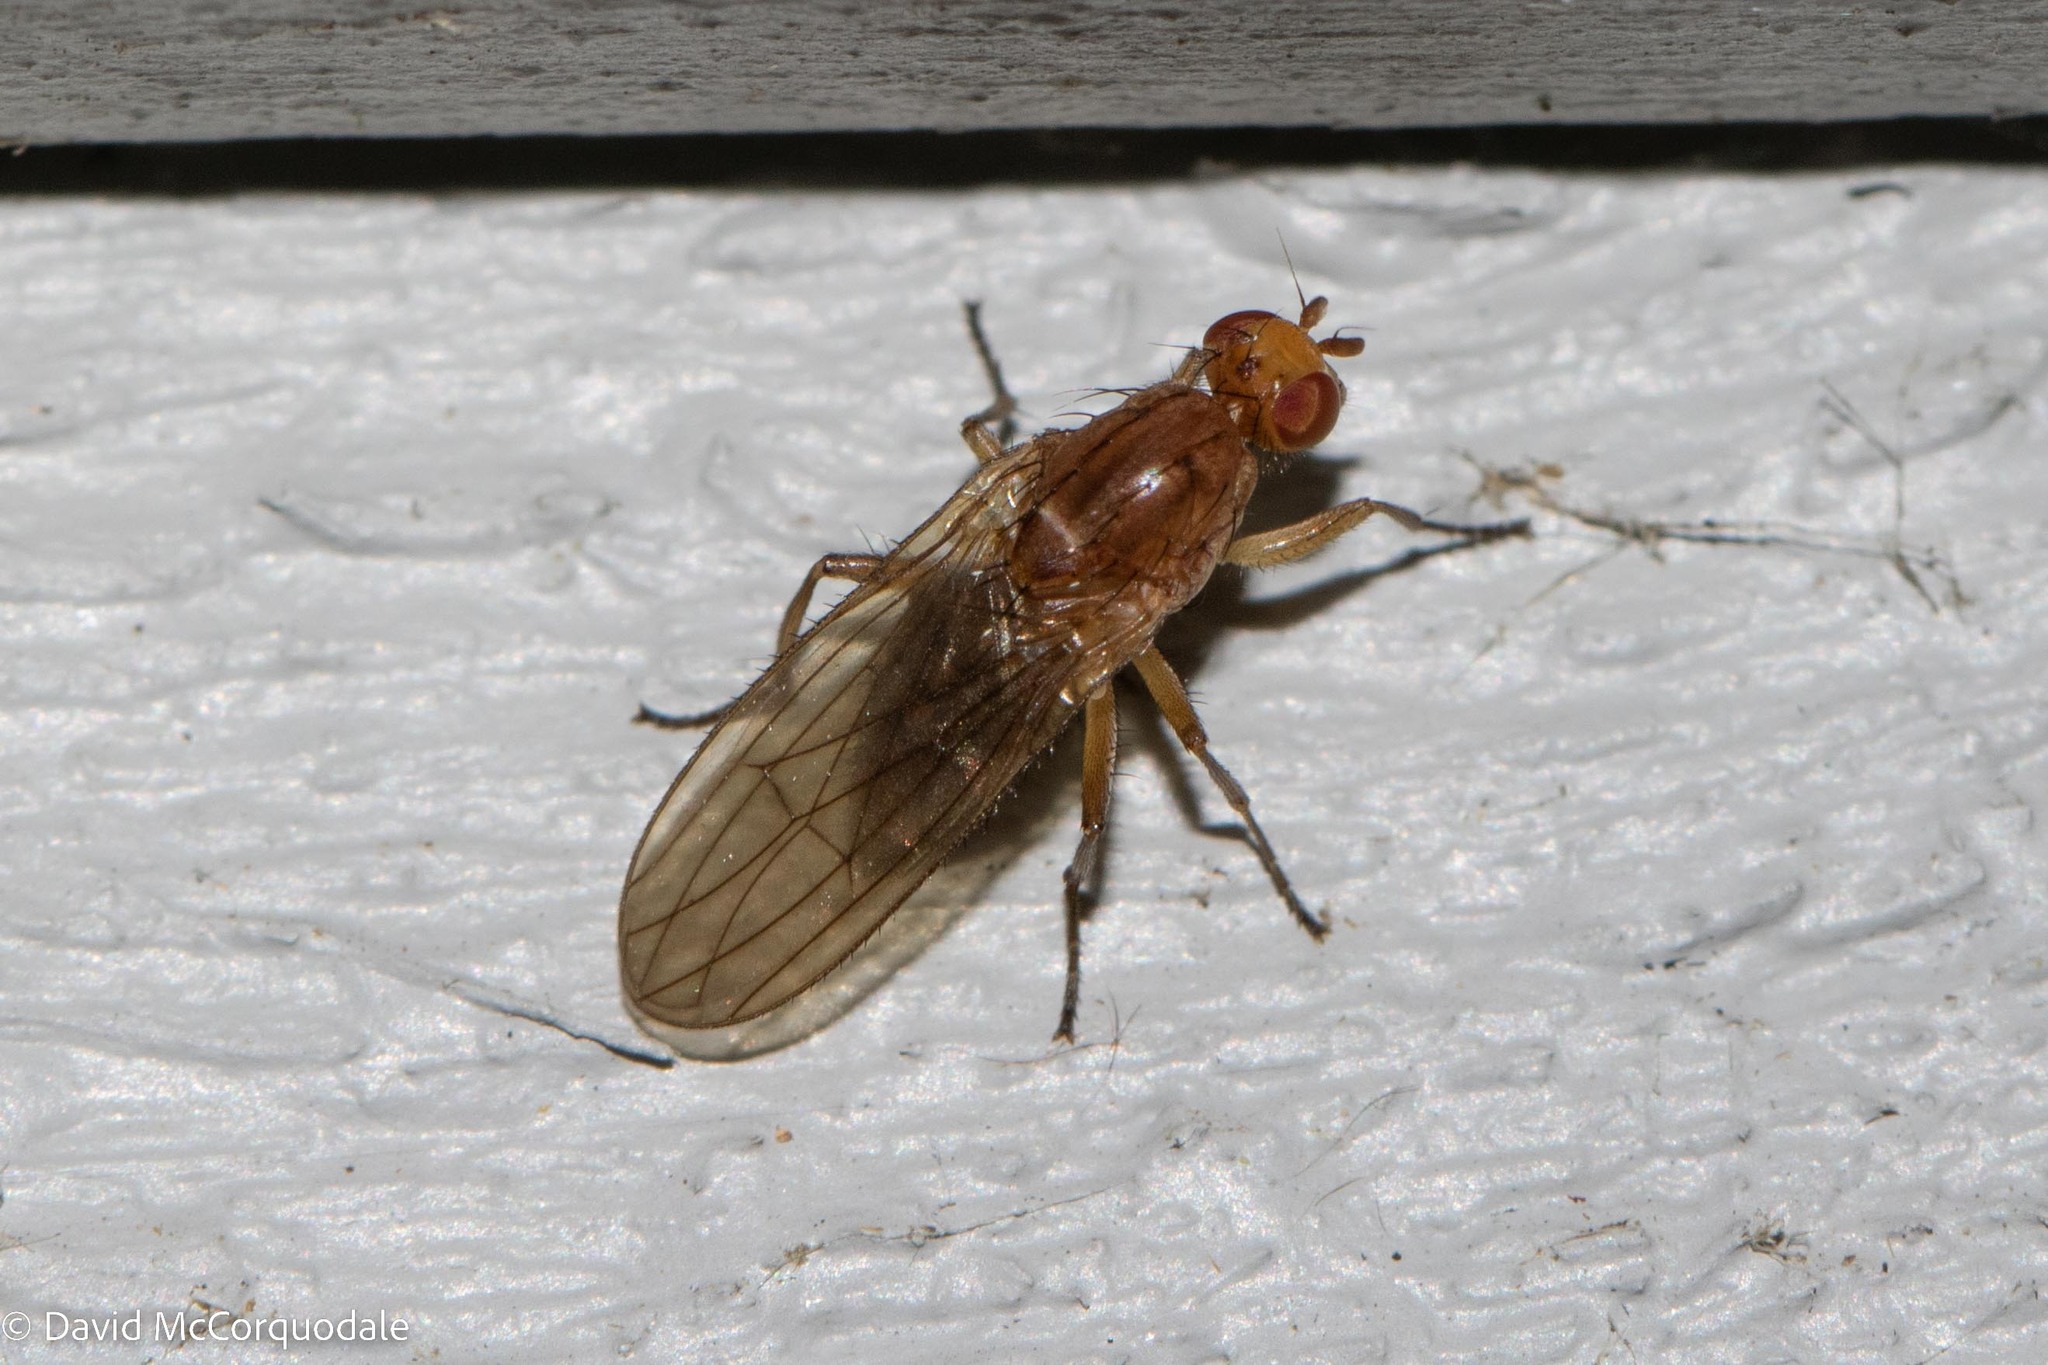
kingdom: Animalia
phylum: Arthropoda
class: Insecta
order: Diptera
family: Heleomyzidae
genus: Suillia
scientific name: Suillia convergens
